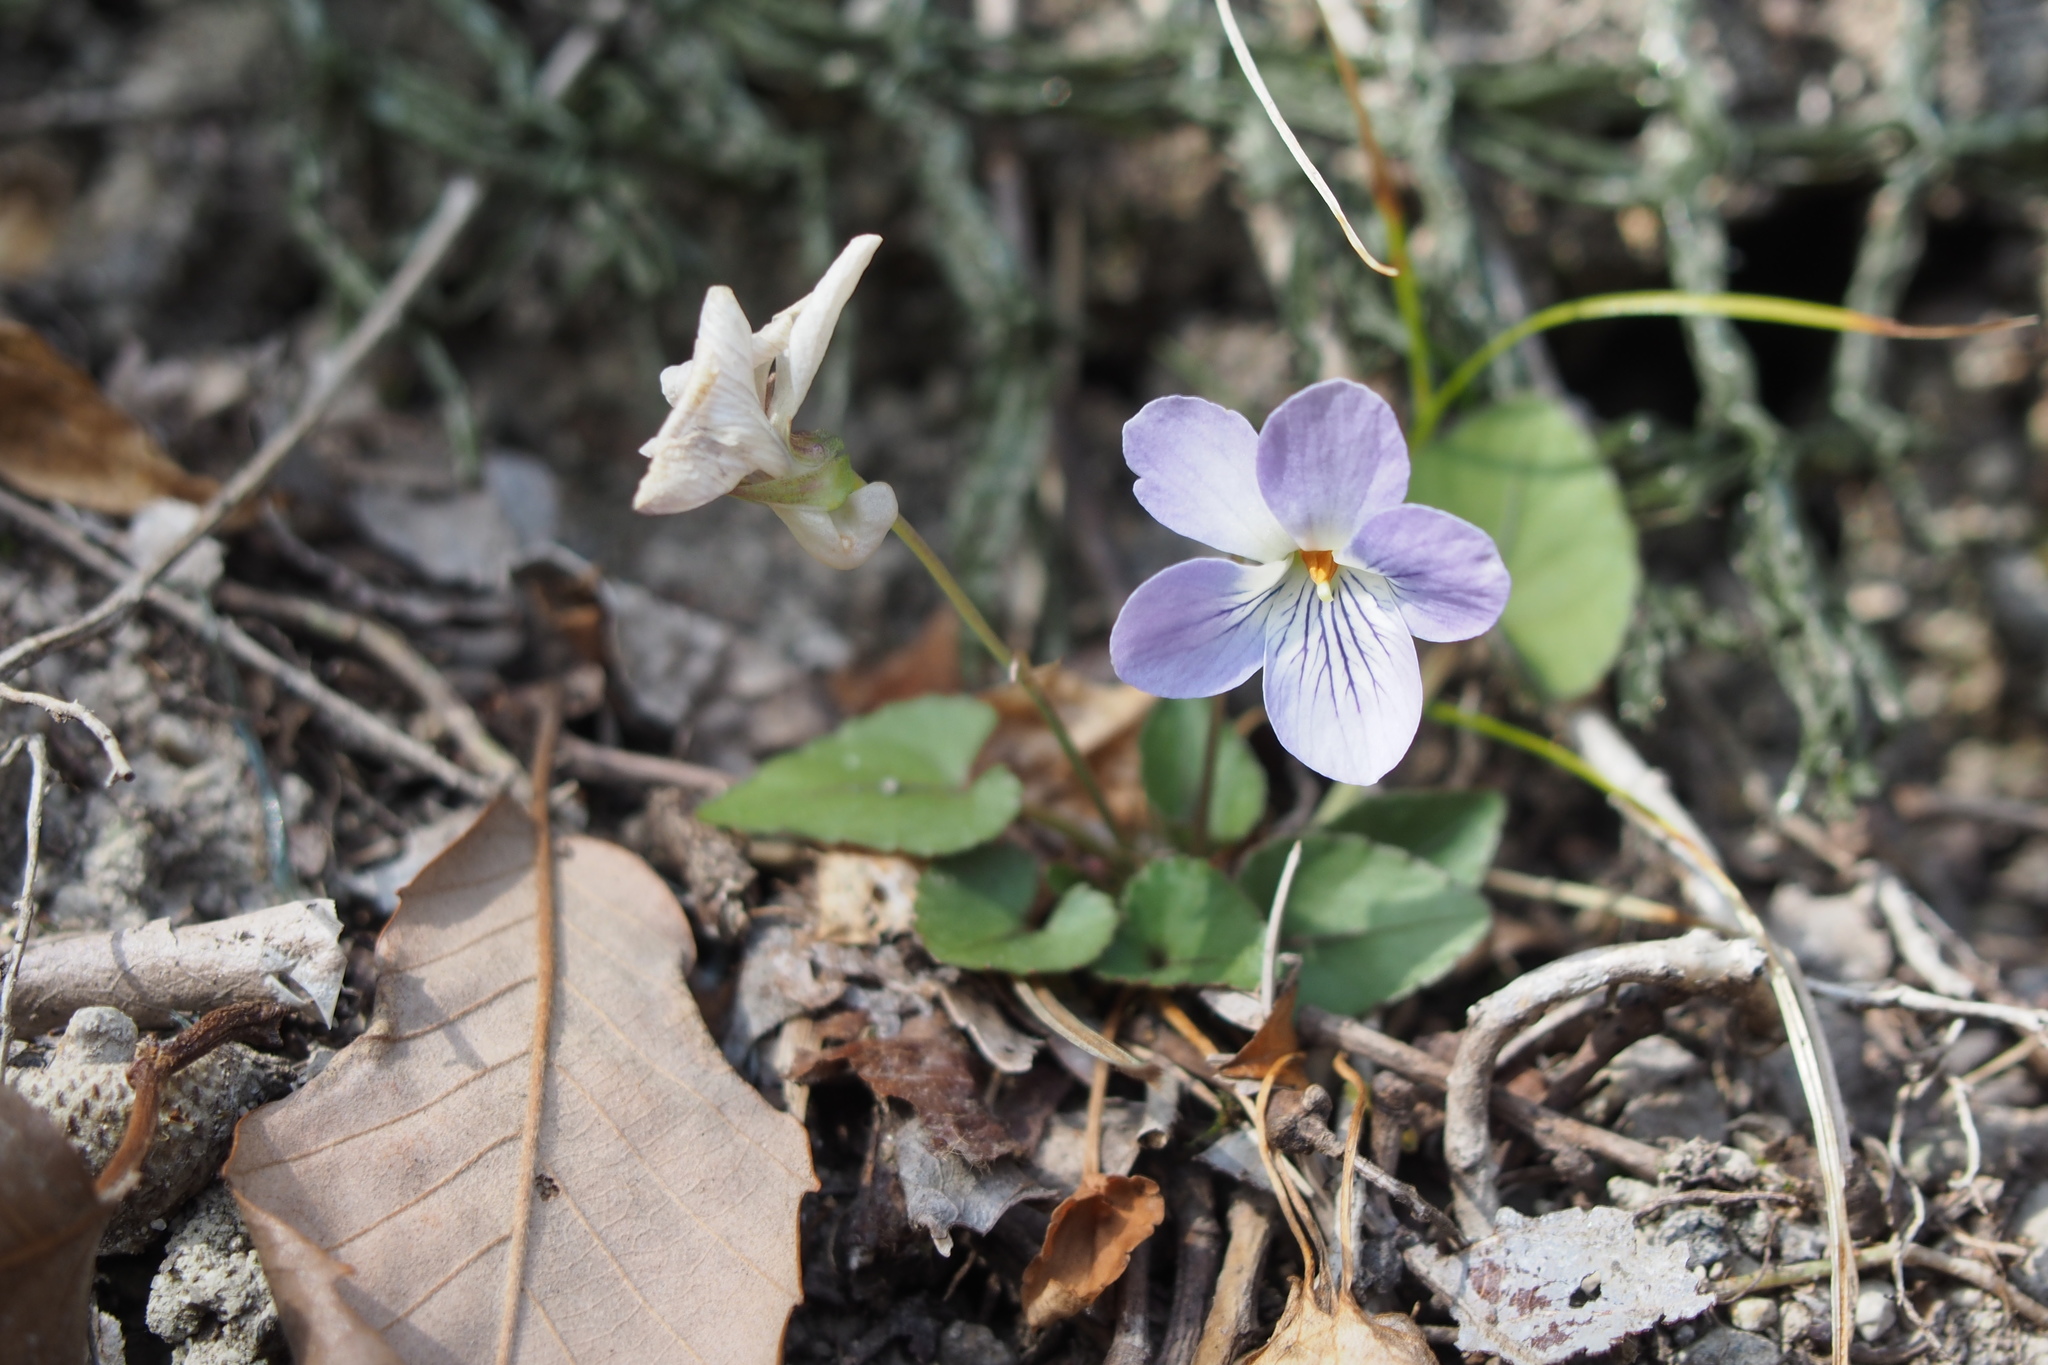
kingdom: Plantae
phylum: Tracheophyta
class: Magnoliopsida
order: Malpighiales
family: Violaceae
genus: Viola
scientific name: Viola ovatooblonga
